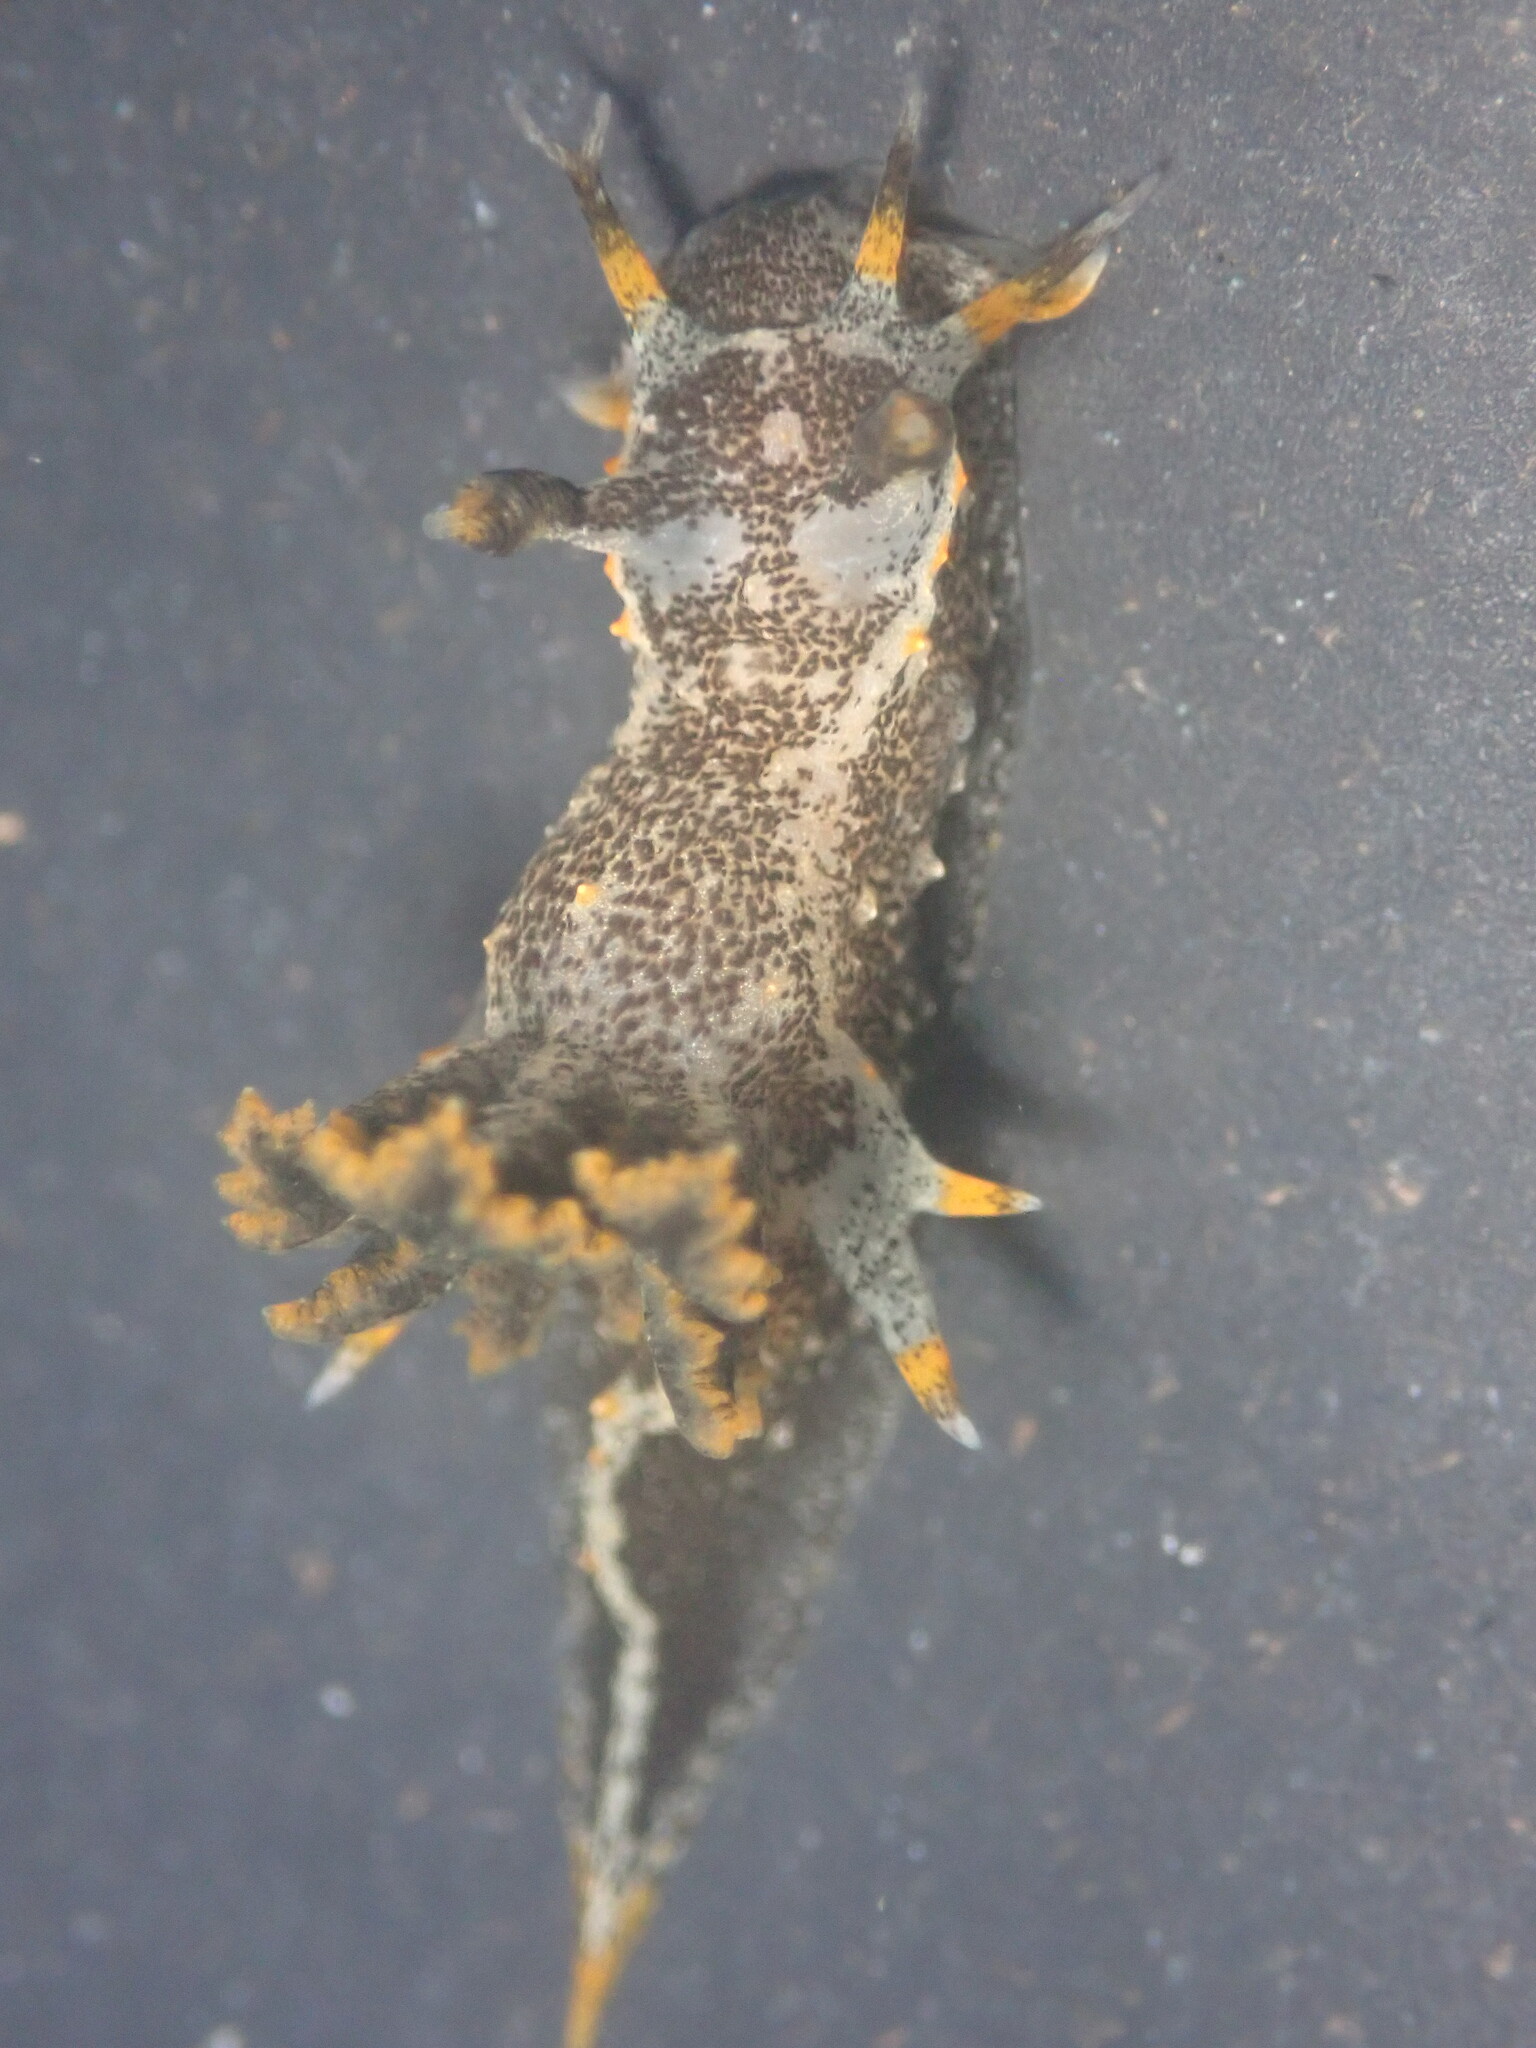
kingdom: Animalia
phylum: Mollusca
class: Gastropoda
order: Nudibranchia
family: Polyceridae
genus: Polycera
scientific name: Polycera hedgpethi
